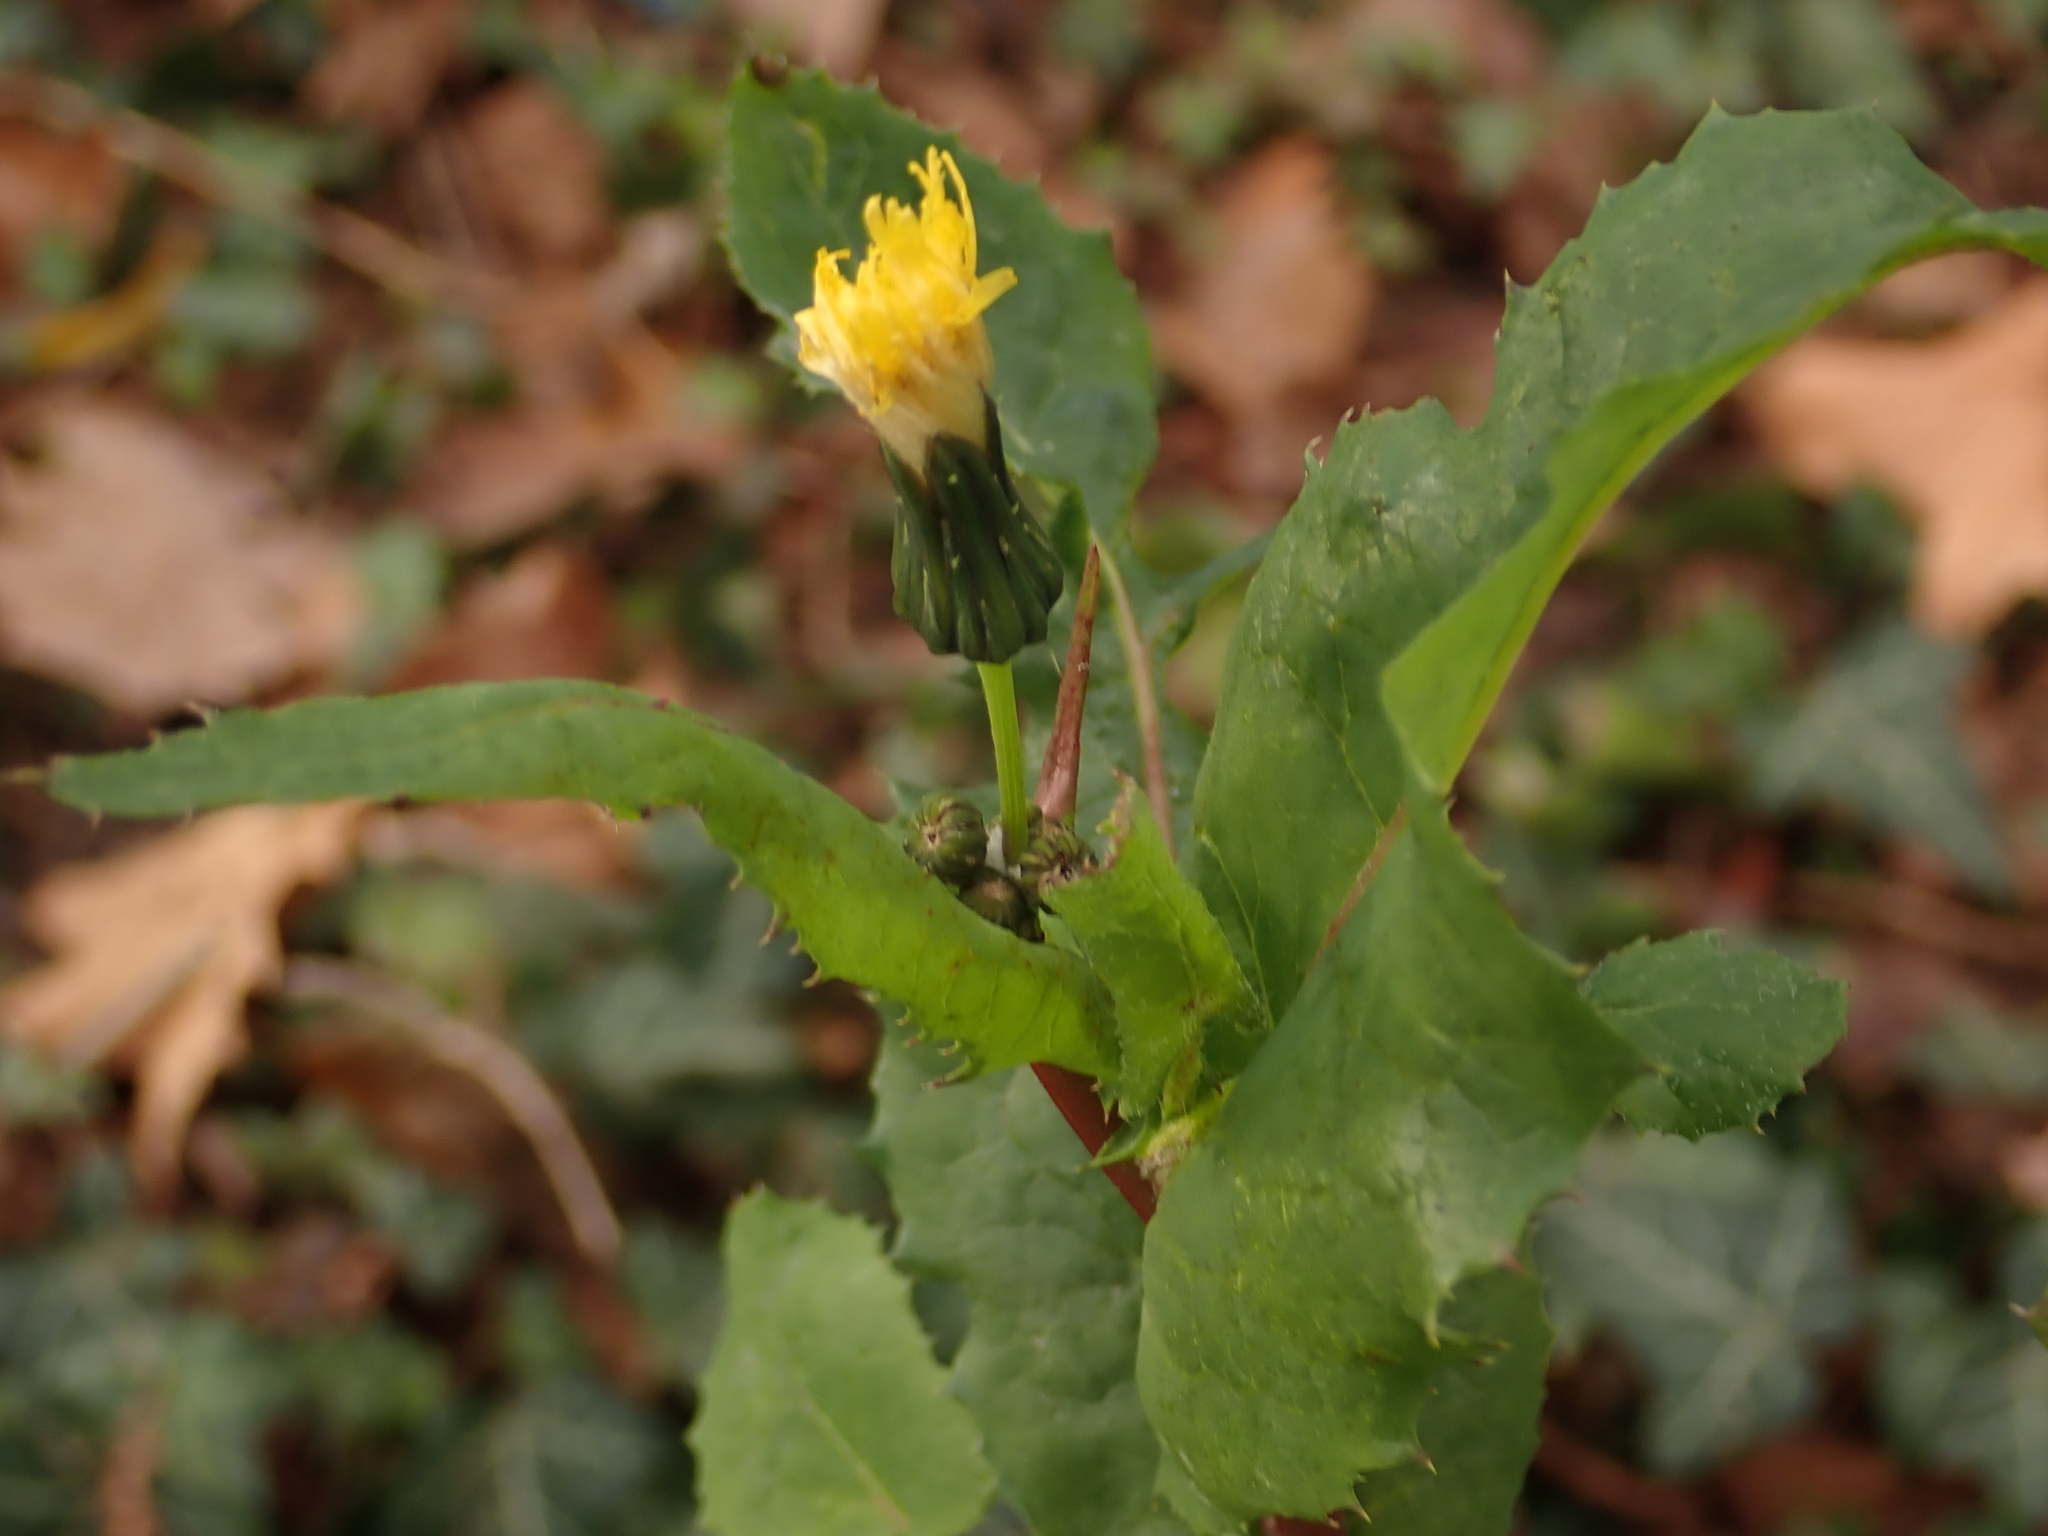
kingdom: Plantae
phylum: Tracheophyta
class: Magnoliopsida
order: Asterales
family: Asteraceae
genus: Sonchus
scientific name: Sonchus oleraceus
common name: Common sowthistle
